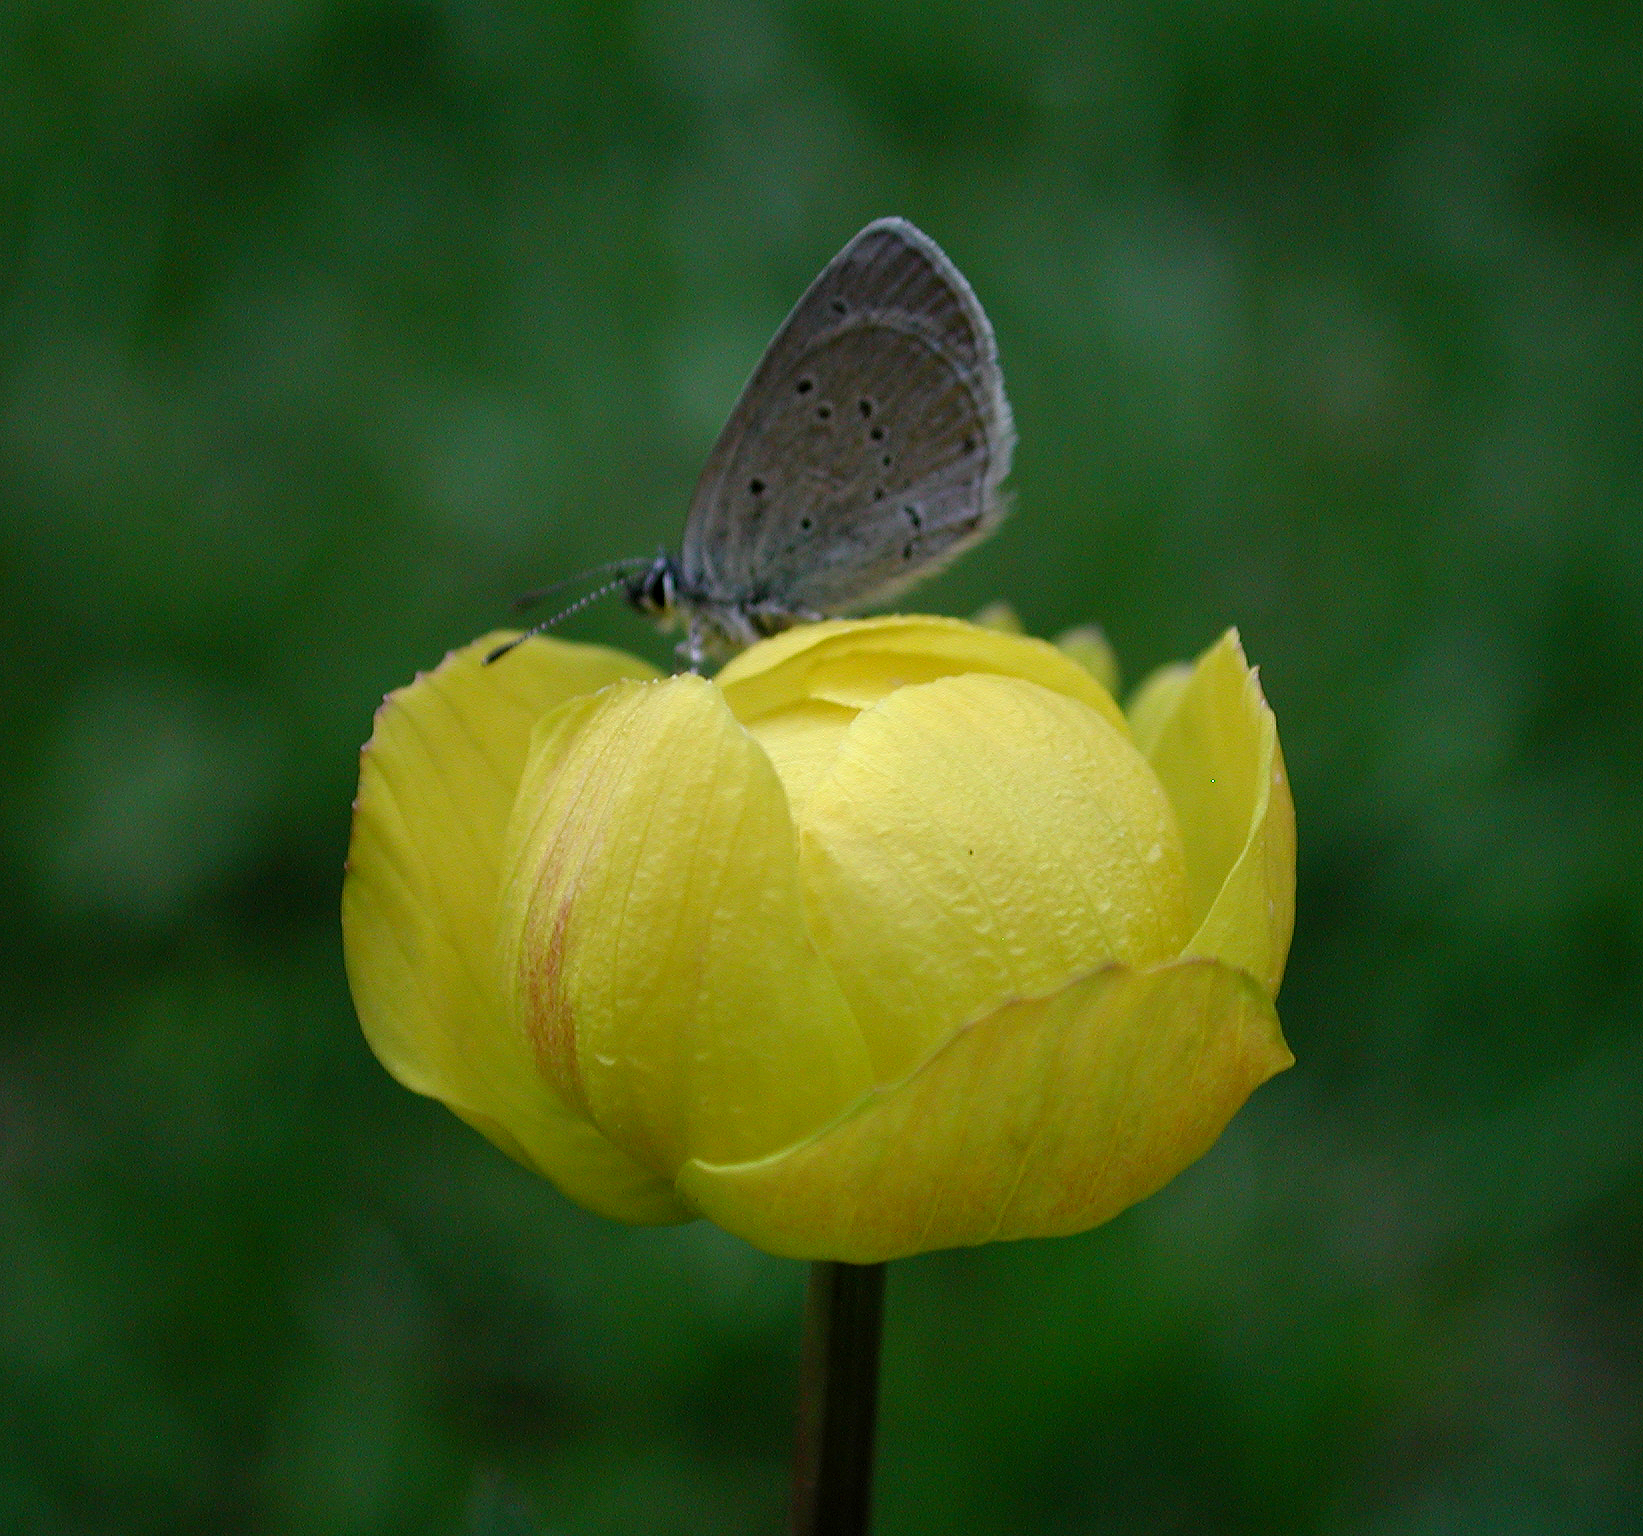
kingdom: Animalia
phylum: Arthropoda
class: Insecta
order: Lepidoptera
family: Lycaenidae
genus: Cupido
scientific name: Cupido minimus
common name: Small blue
